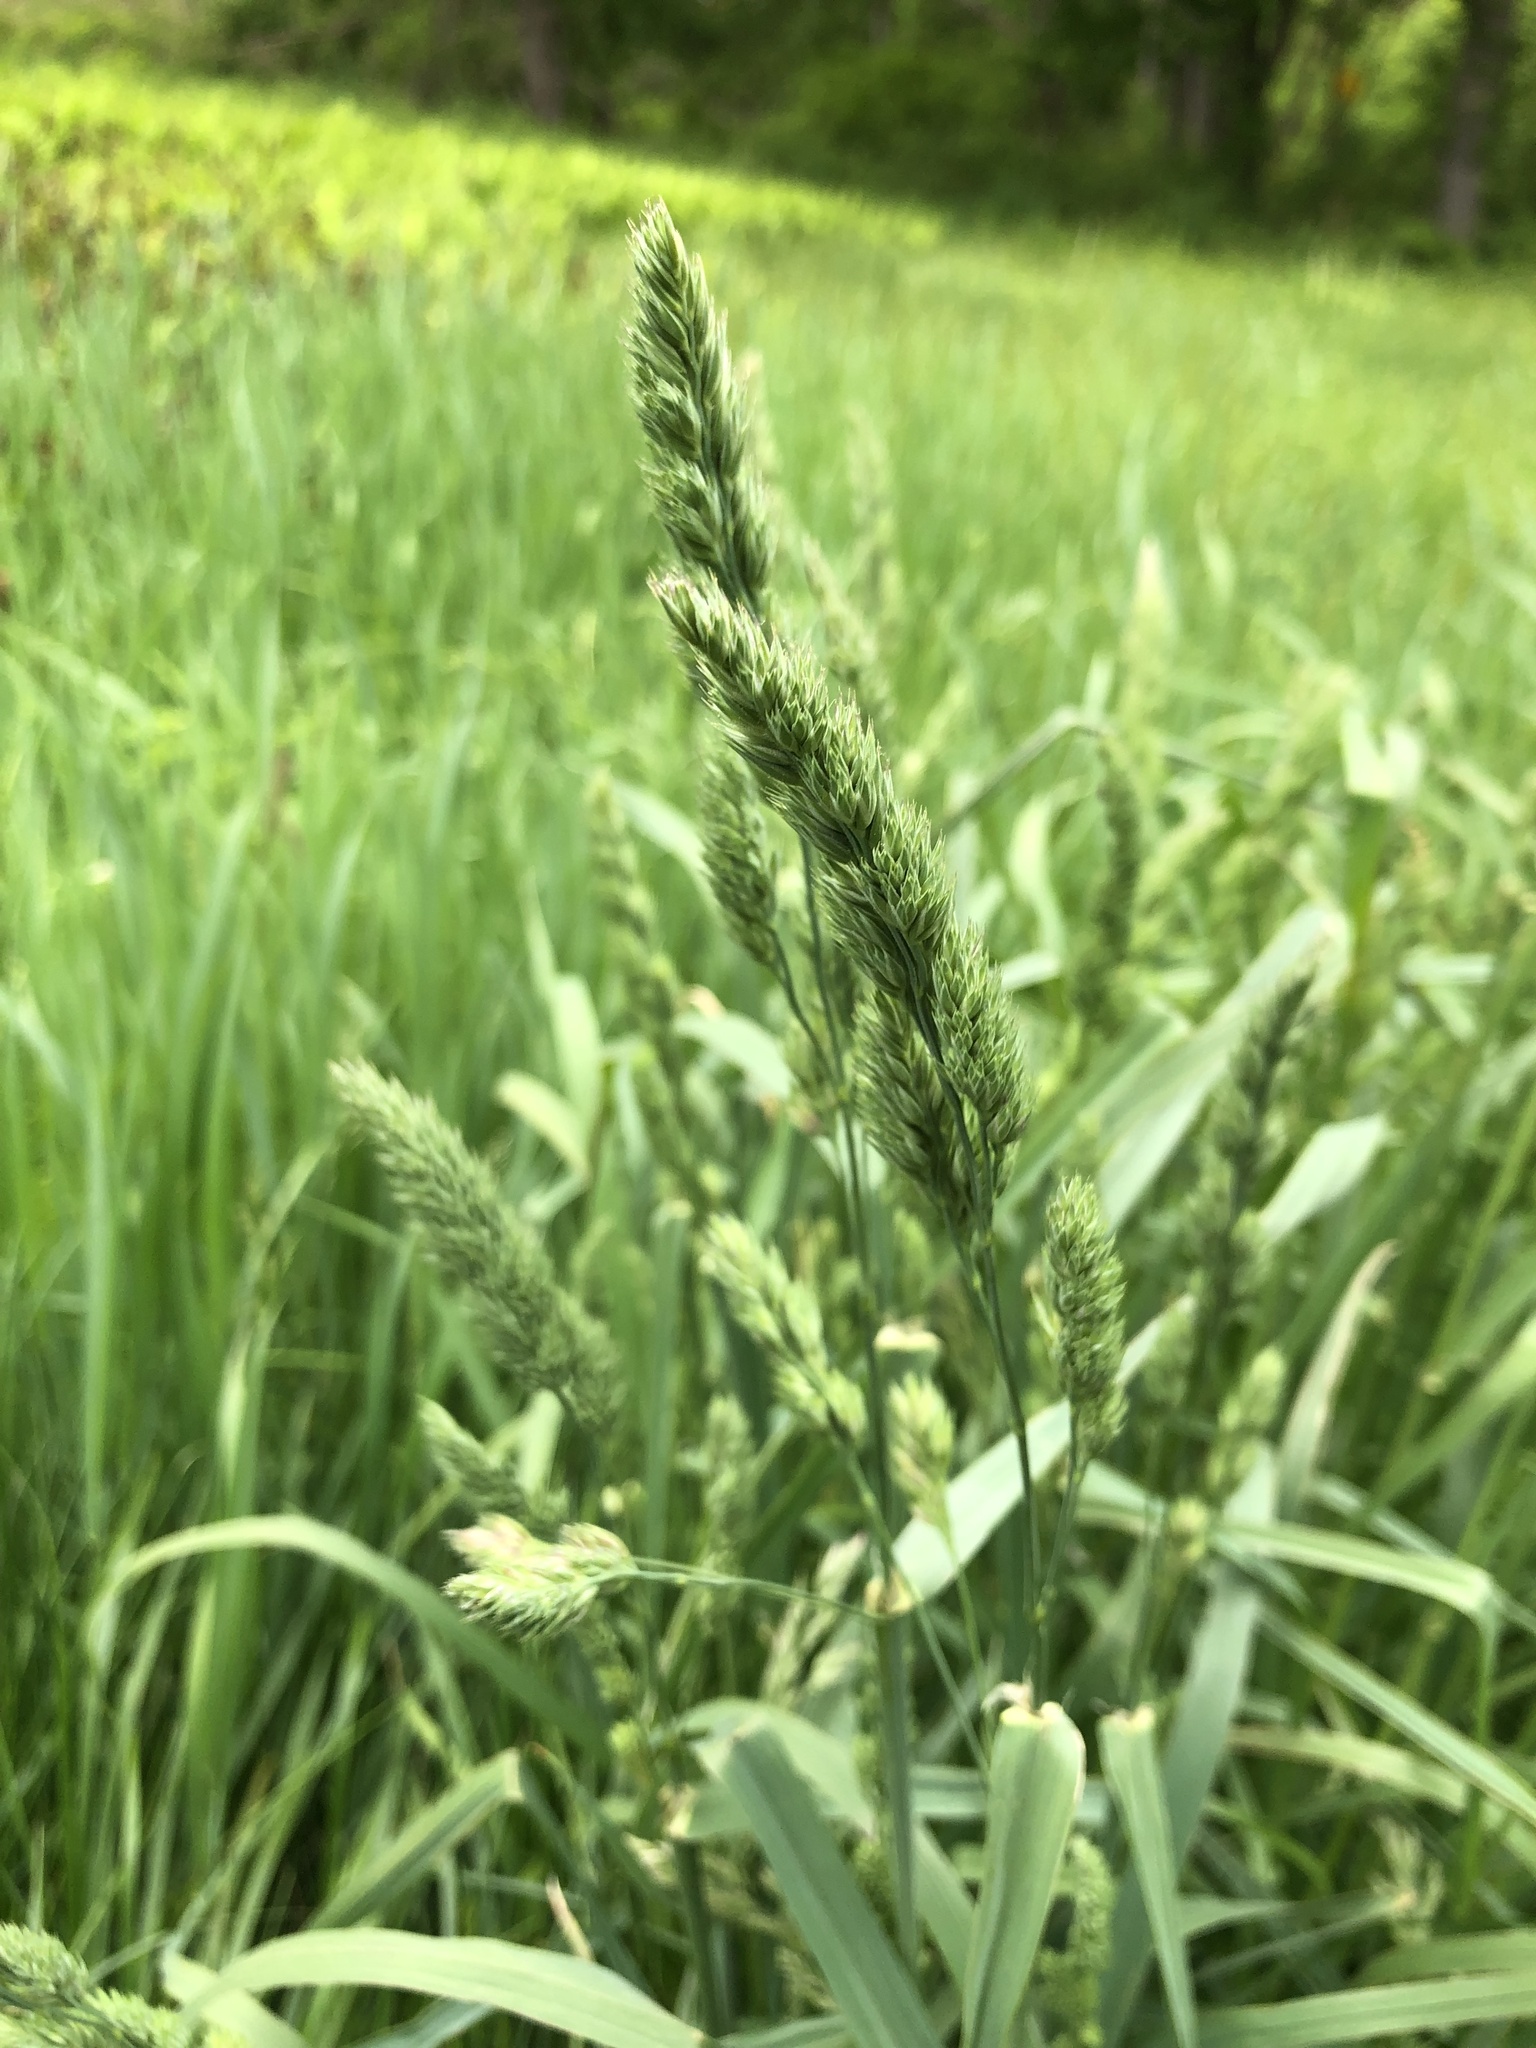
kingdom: Plantae
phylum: Tracheophyta
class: Liliopsida
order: Poales
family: Poaceae
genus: Dactylis
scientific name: Dactylis glomerata
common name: Orchardgrass
